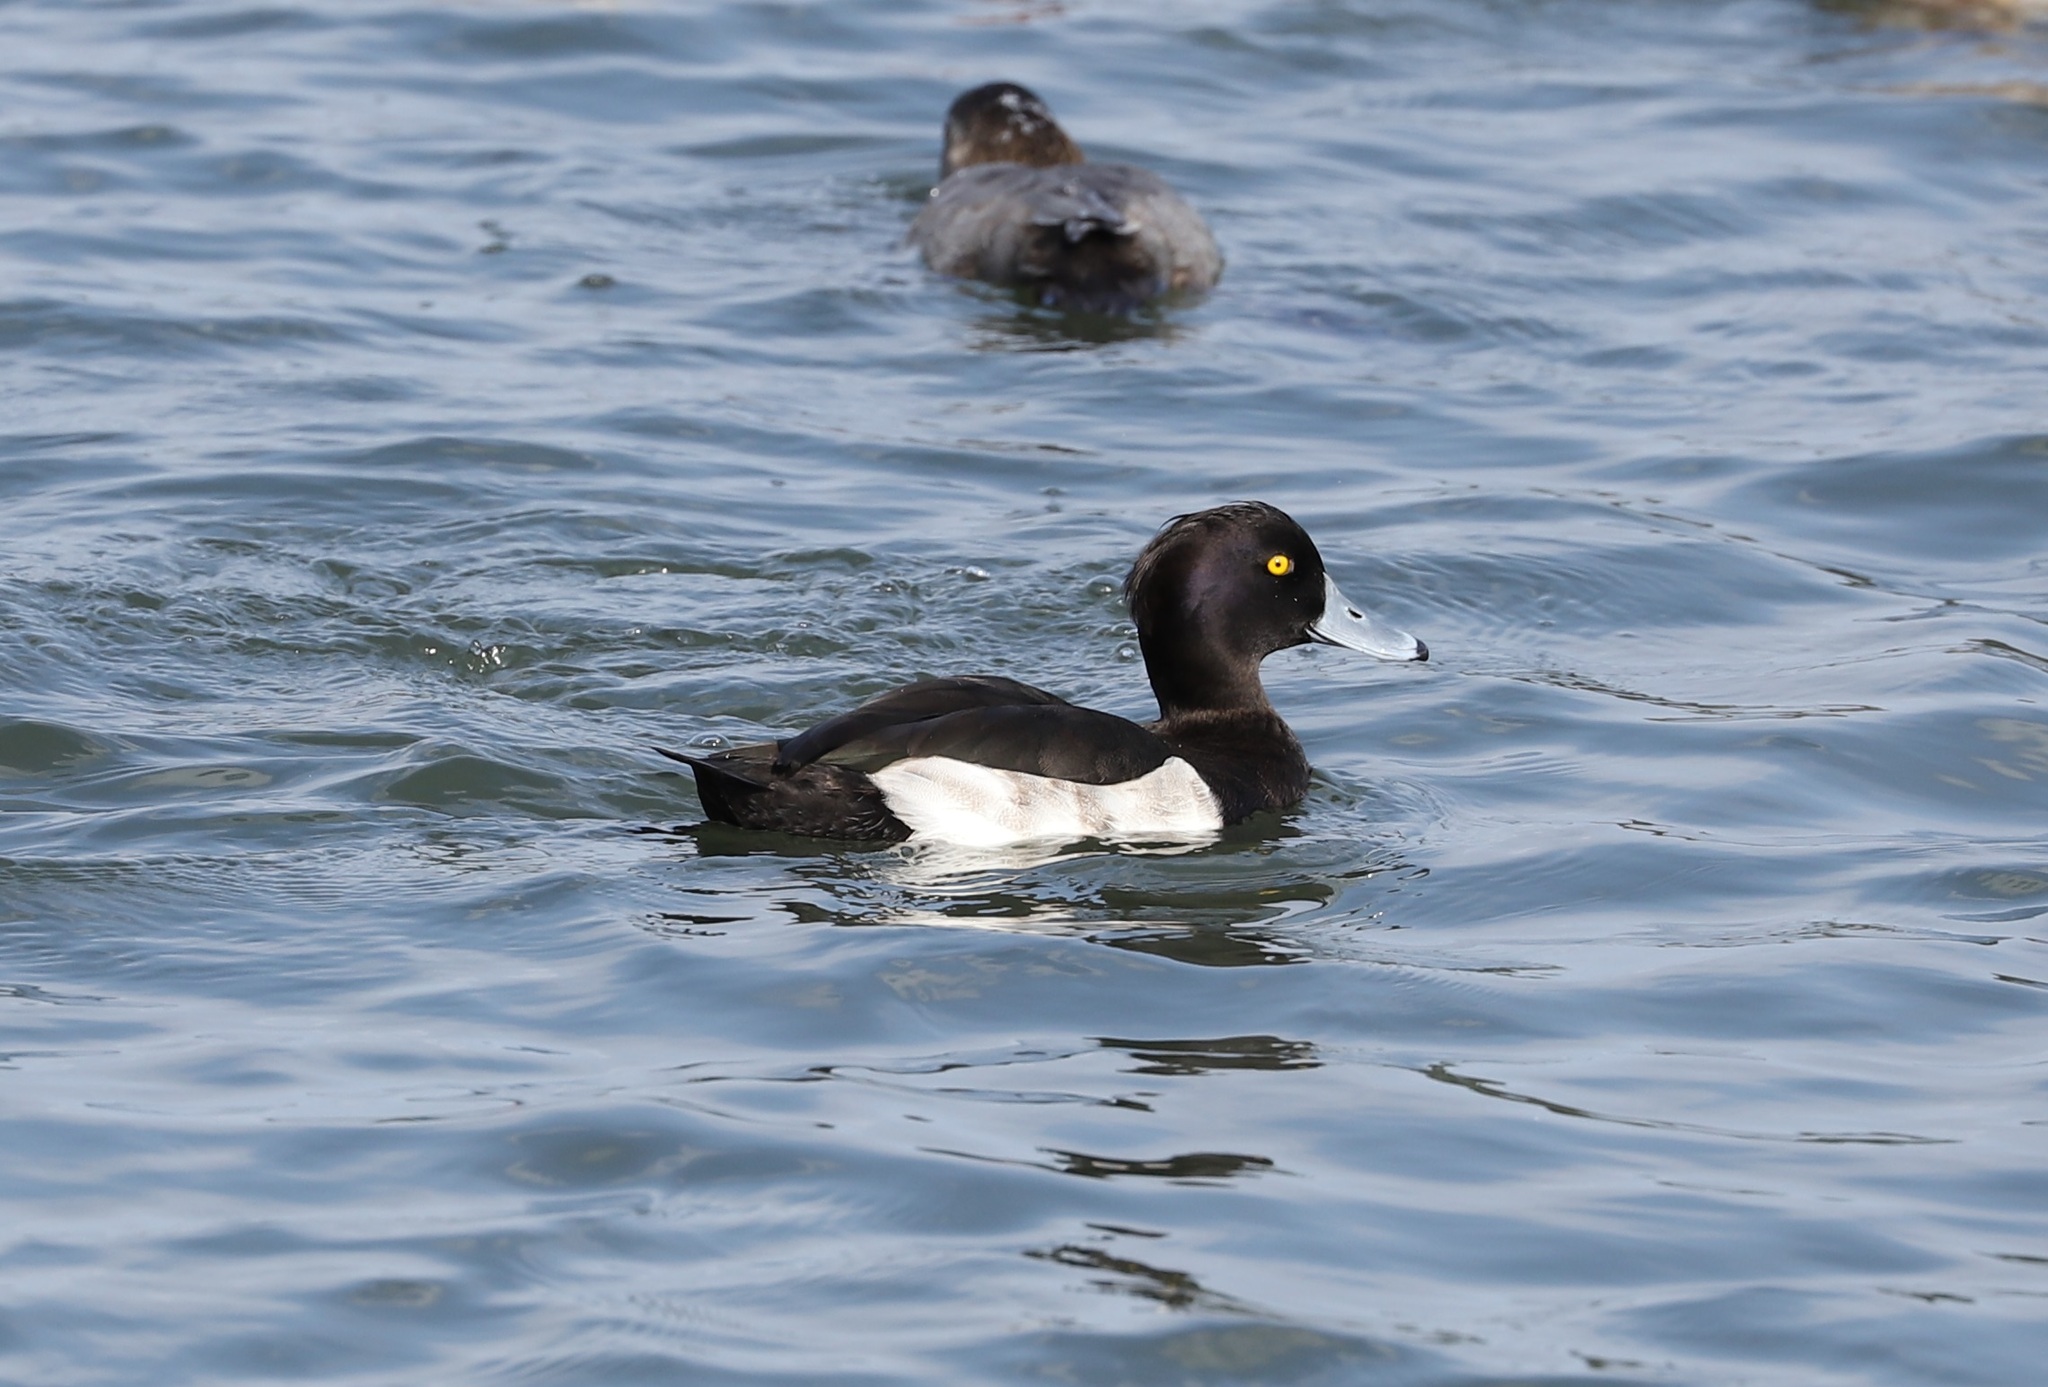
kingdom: Animalia
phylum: Chordata
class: Aves
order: Anseriformes
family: Anatidae
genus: Aythya
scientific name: Aythya fuligula
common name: Tufted duck
